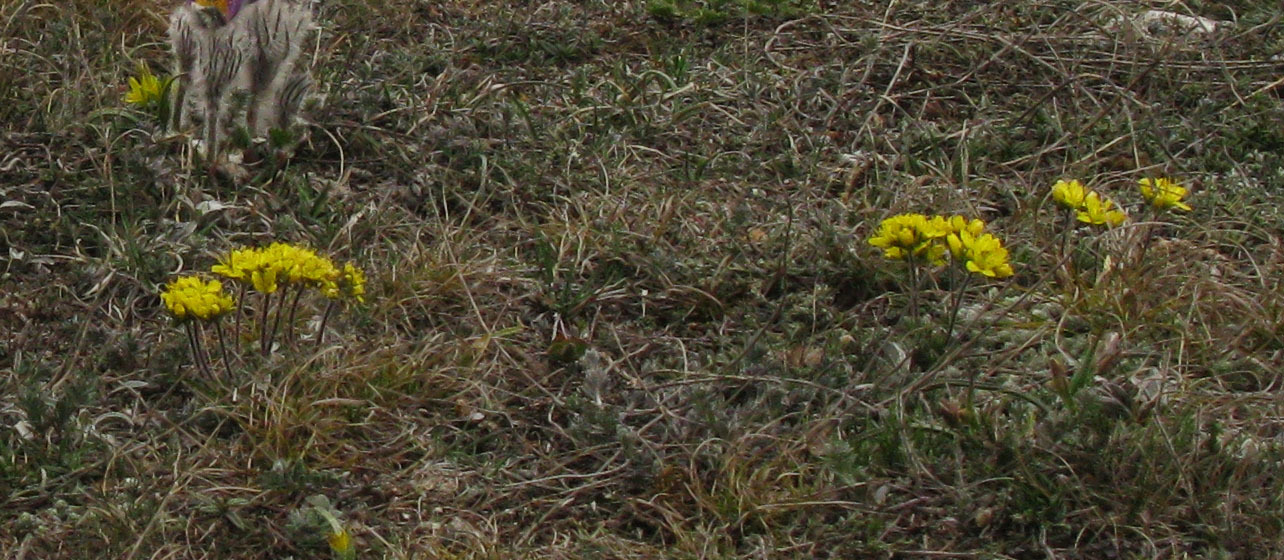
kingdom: Plantae
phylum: Tracheophyta
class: Magnoliopsida
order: Brassicales
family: Brassicaceae
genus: Draba
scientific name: Draba cuspidata
